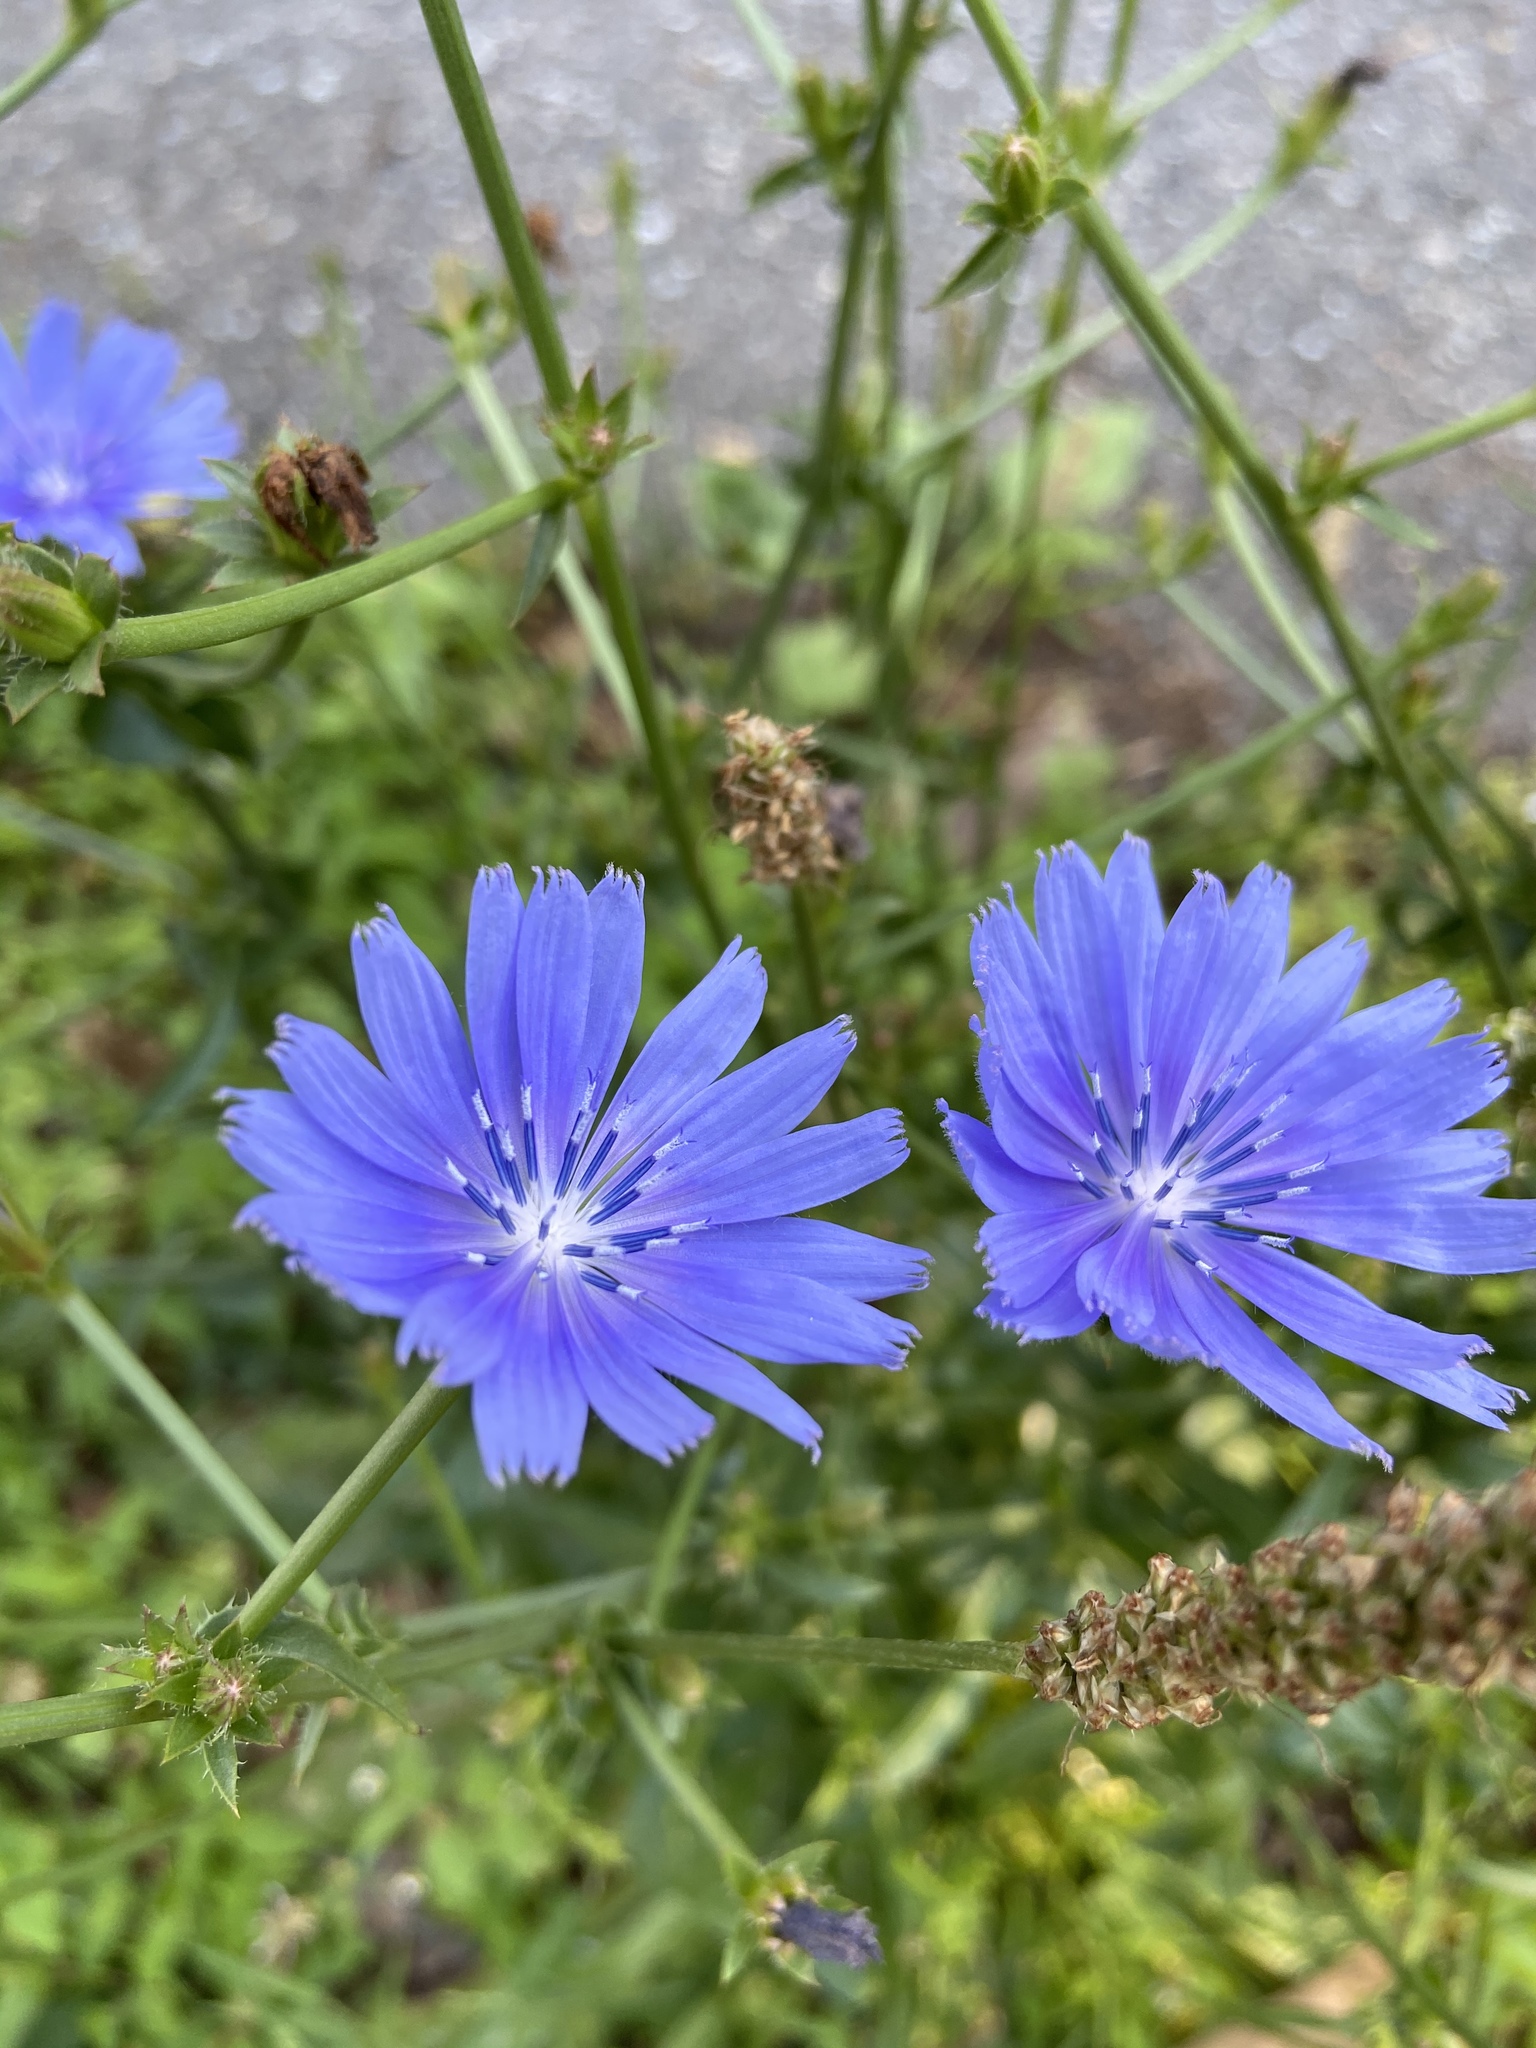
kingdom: Plantae
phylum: Tracheophyta
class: Magnoliopsida
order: Asterales
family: Asteraceae
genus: Cichorium
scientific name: Cichorium intybus
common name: Chicory
